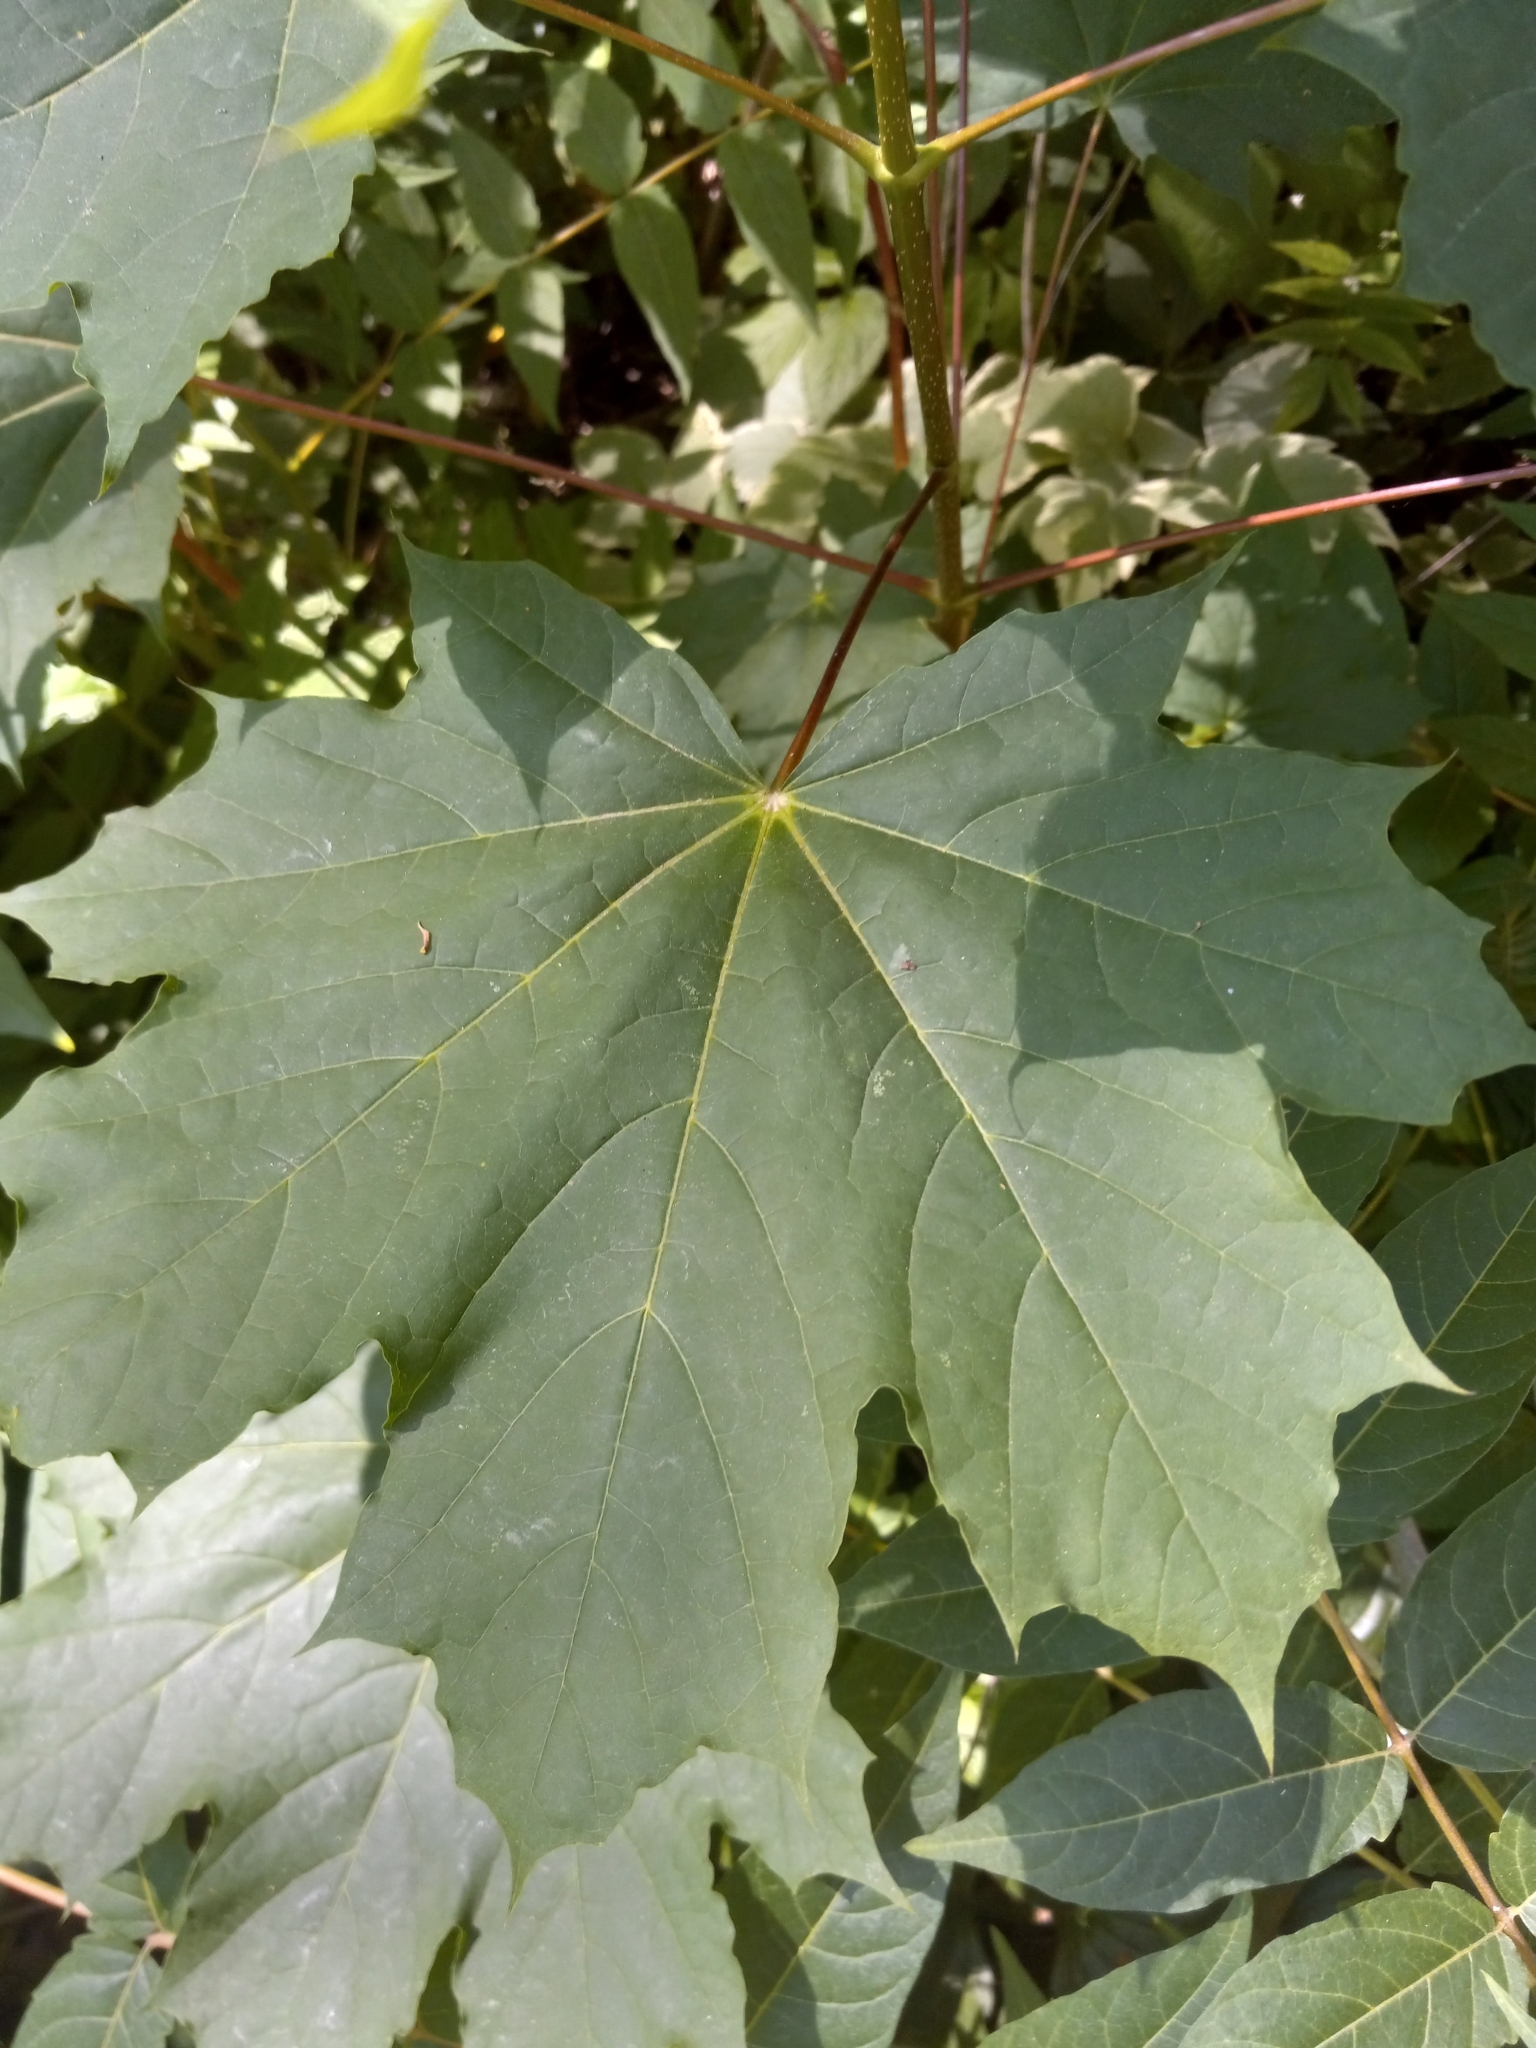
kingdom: Plantae
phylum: Tracheophyta
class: Magnoliopsida
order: Sapindales
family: Sapindaceae
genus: Acer
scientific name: Acer platanoides
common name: Norway maple
